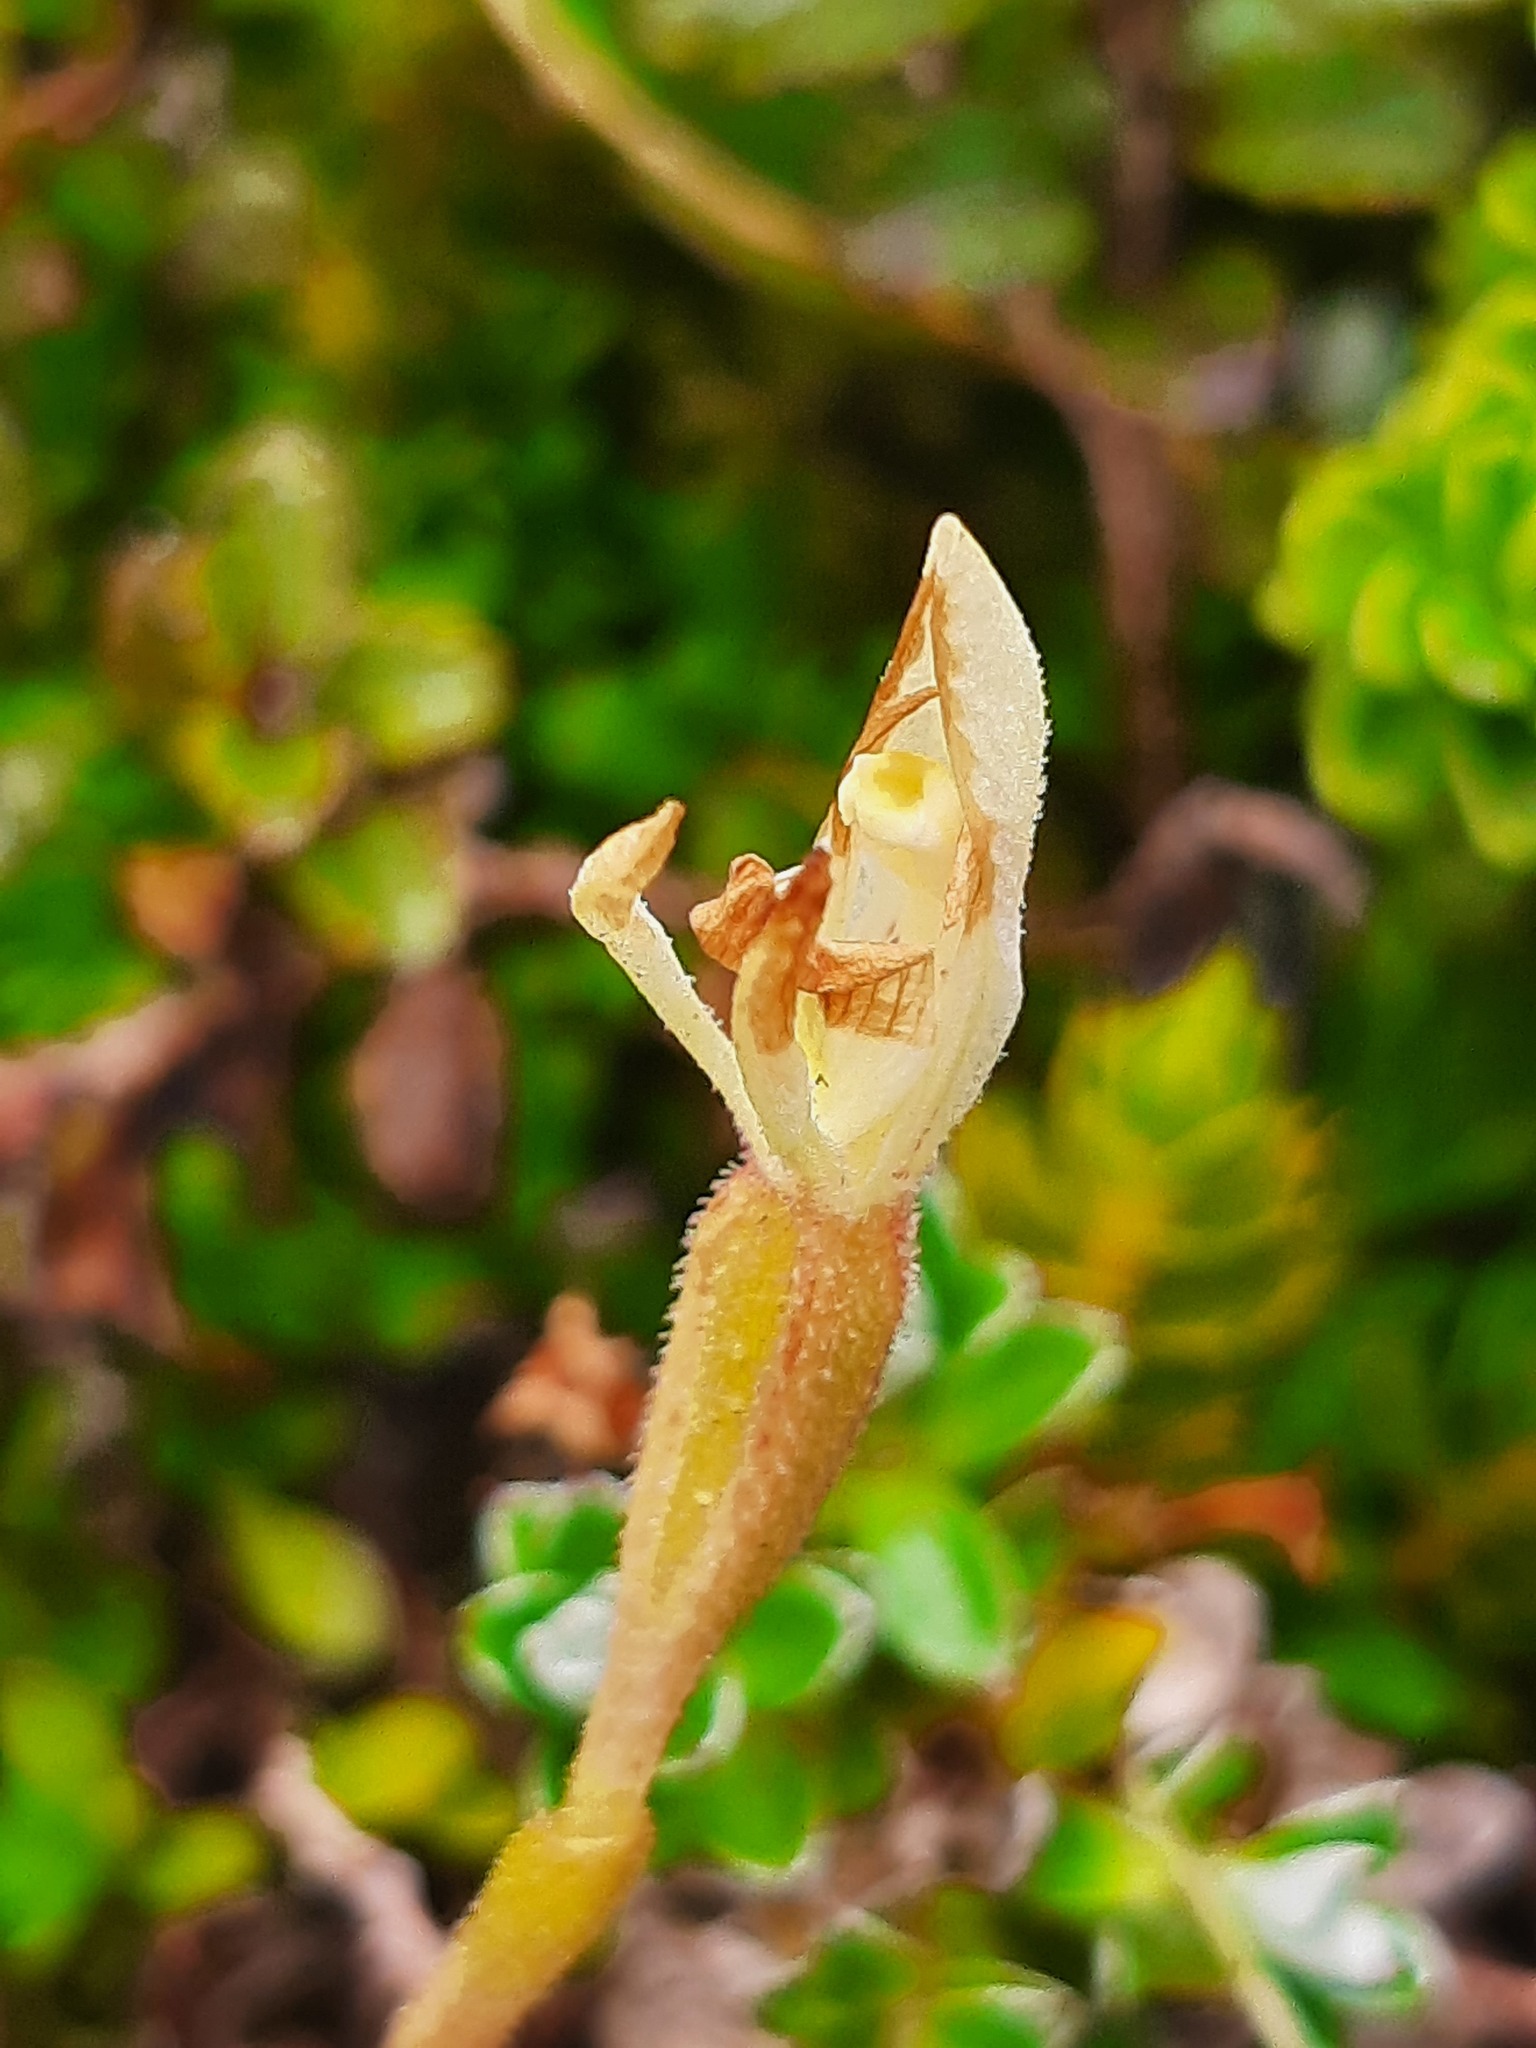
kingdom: Plantae
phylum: Tracheophyta
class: Liliopsida
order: Asparagales
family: Orchidaceae
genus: Aporostylis
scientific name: Aporostylis bifolia
